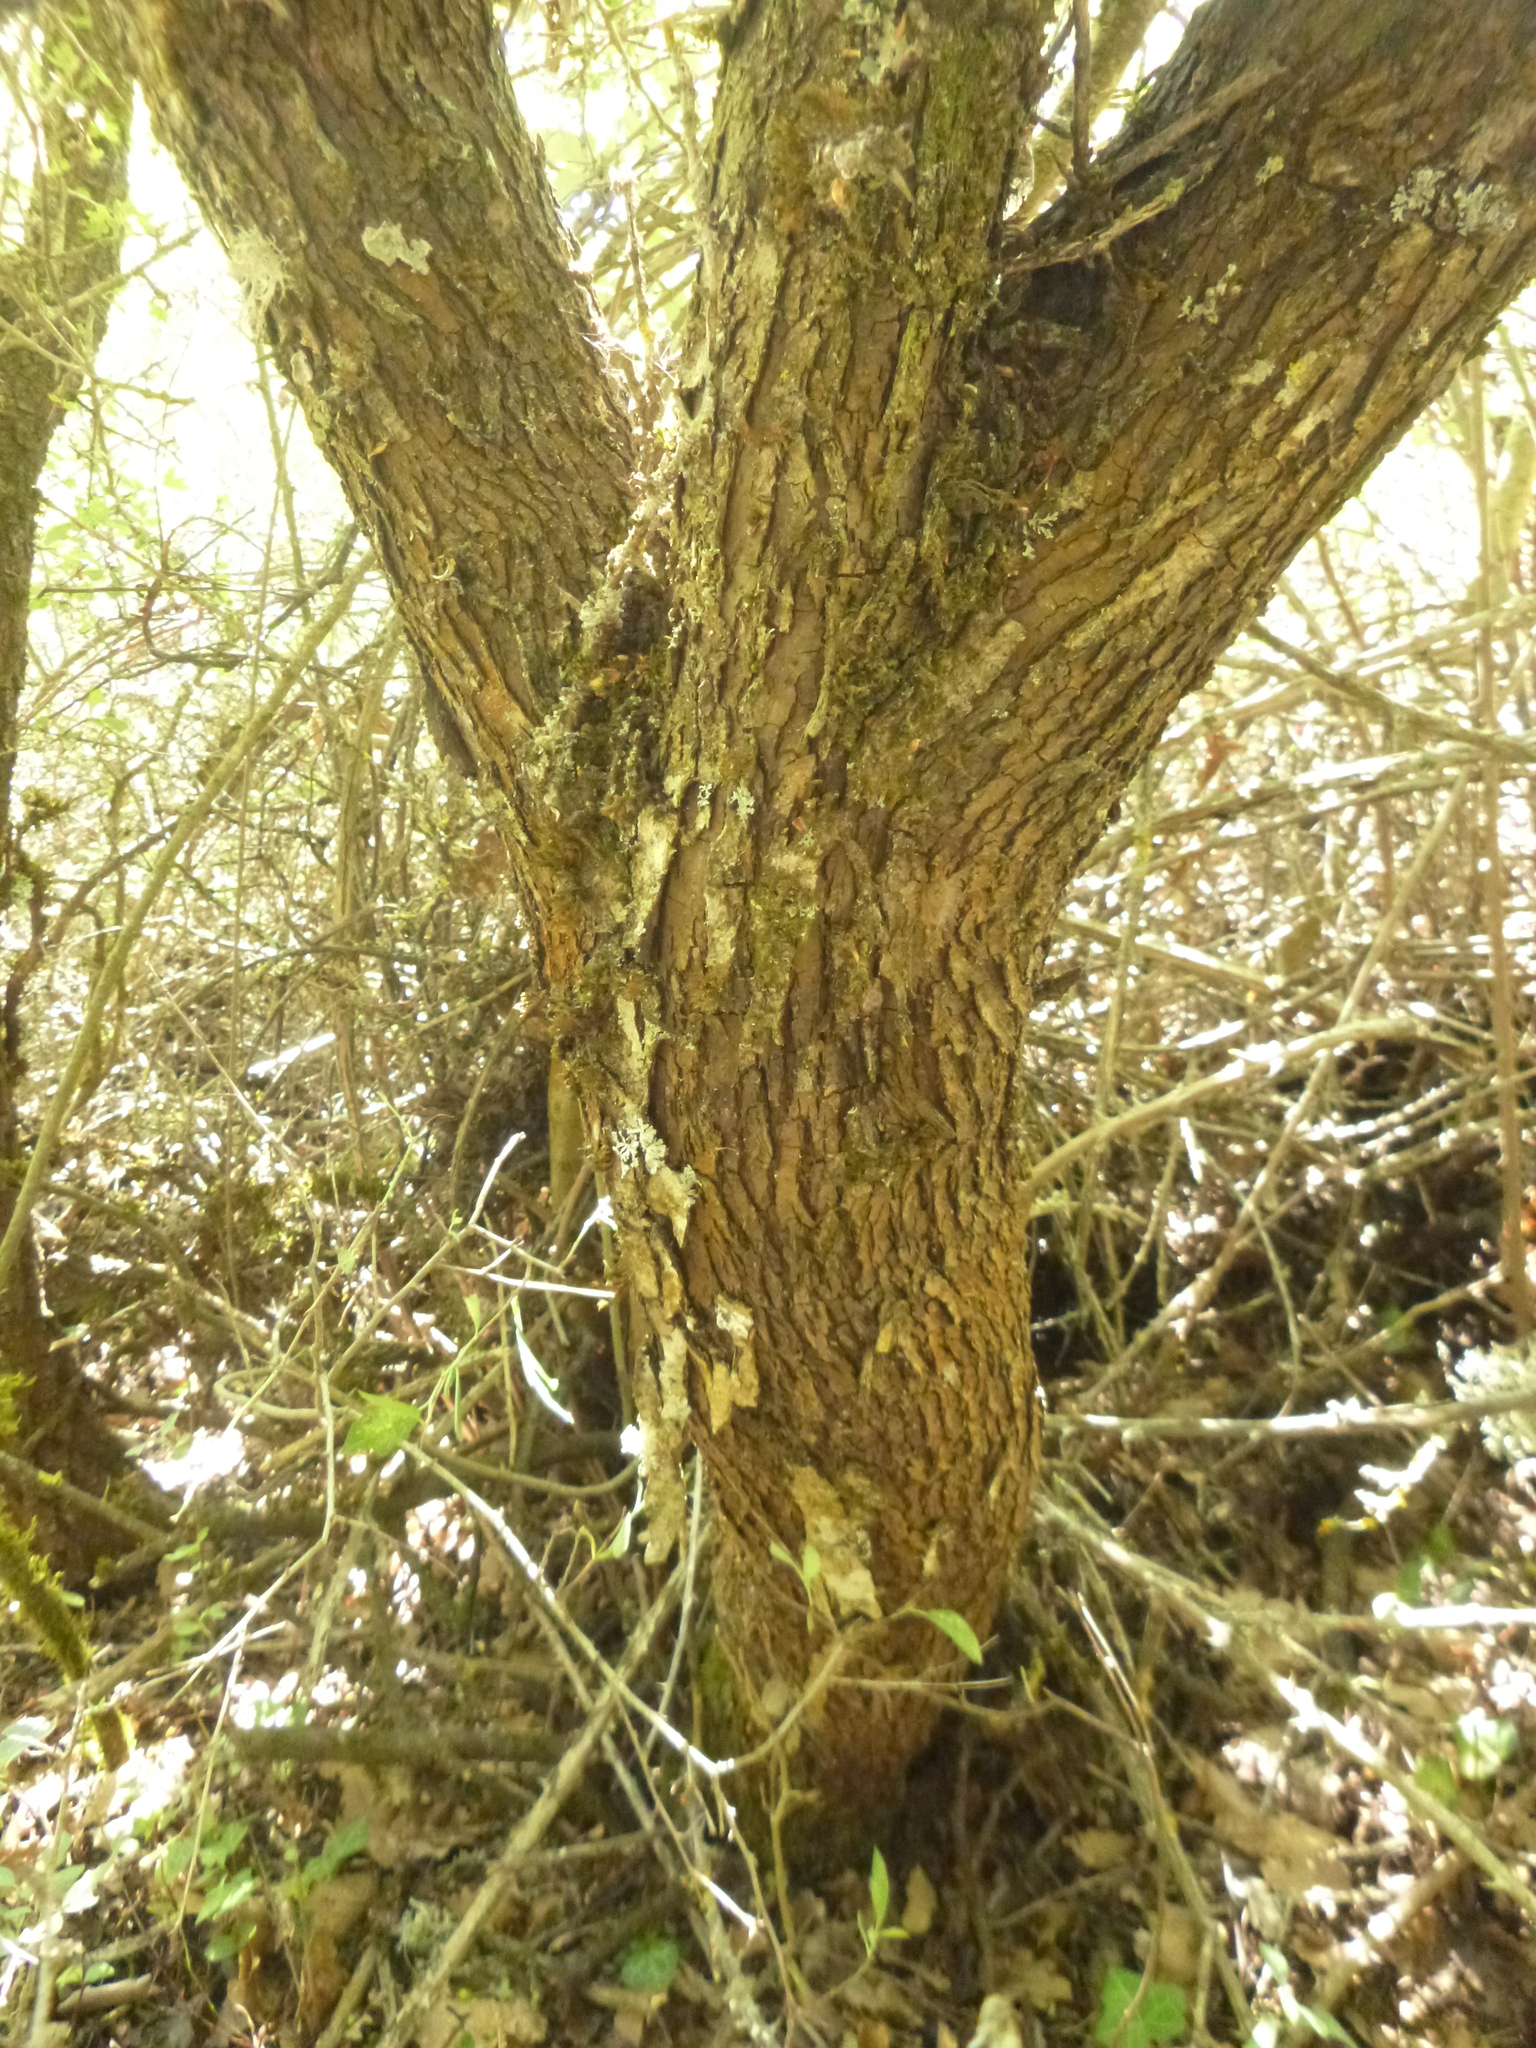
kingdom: Plantae
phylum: Tracheophyta
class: Magnoliopsida
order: Rosales
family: Rosaceae
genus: Crataegus
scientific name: Crataegus monogyna
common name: Hawthorn
